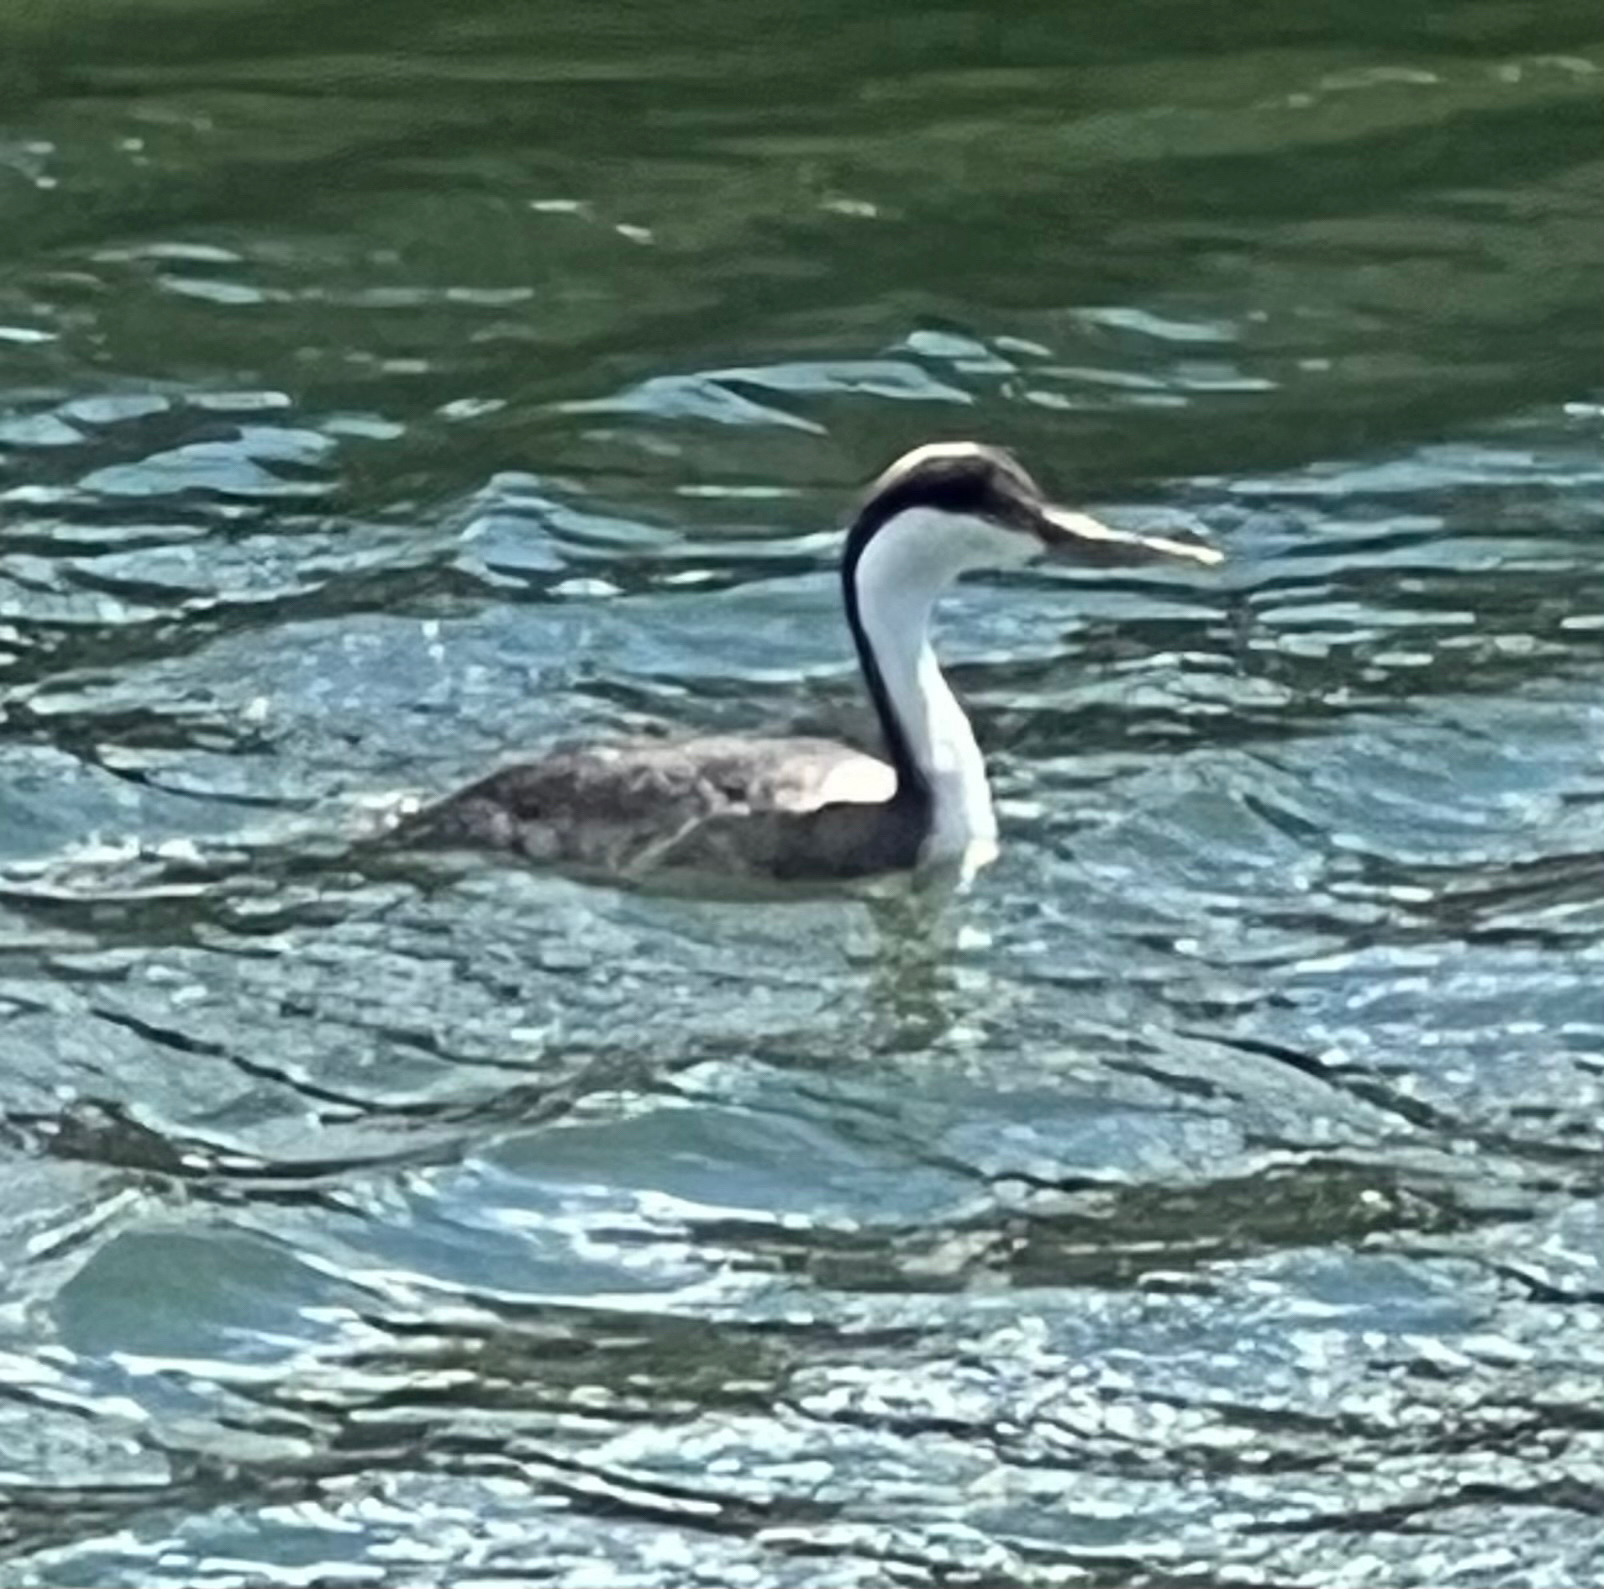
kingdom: Animalia
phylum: Chordata
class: Aves
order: Podicipediformes
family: Podicipedidae
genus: Aechmophorus
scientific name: Aechmophorus occidentalis
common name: Western grebe
